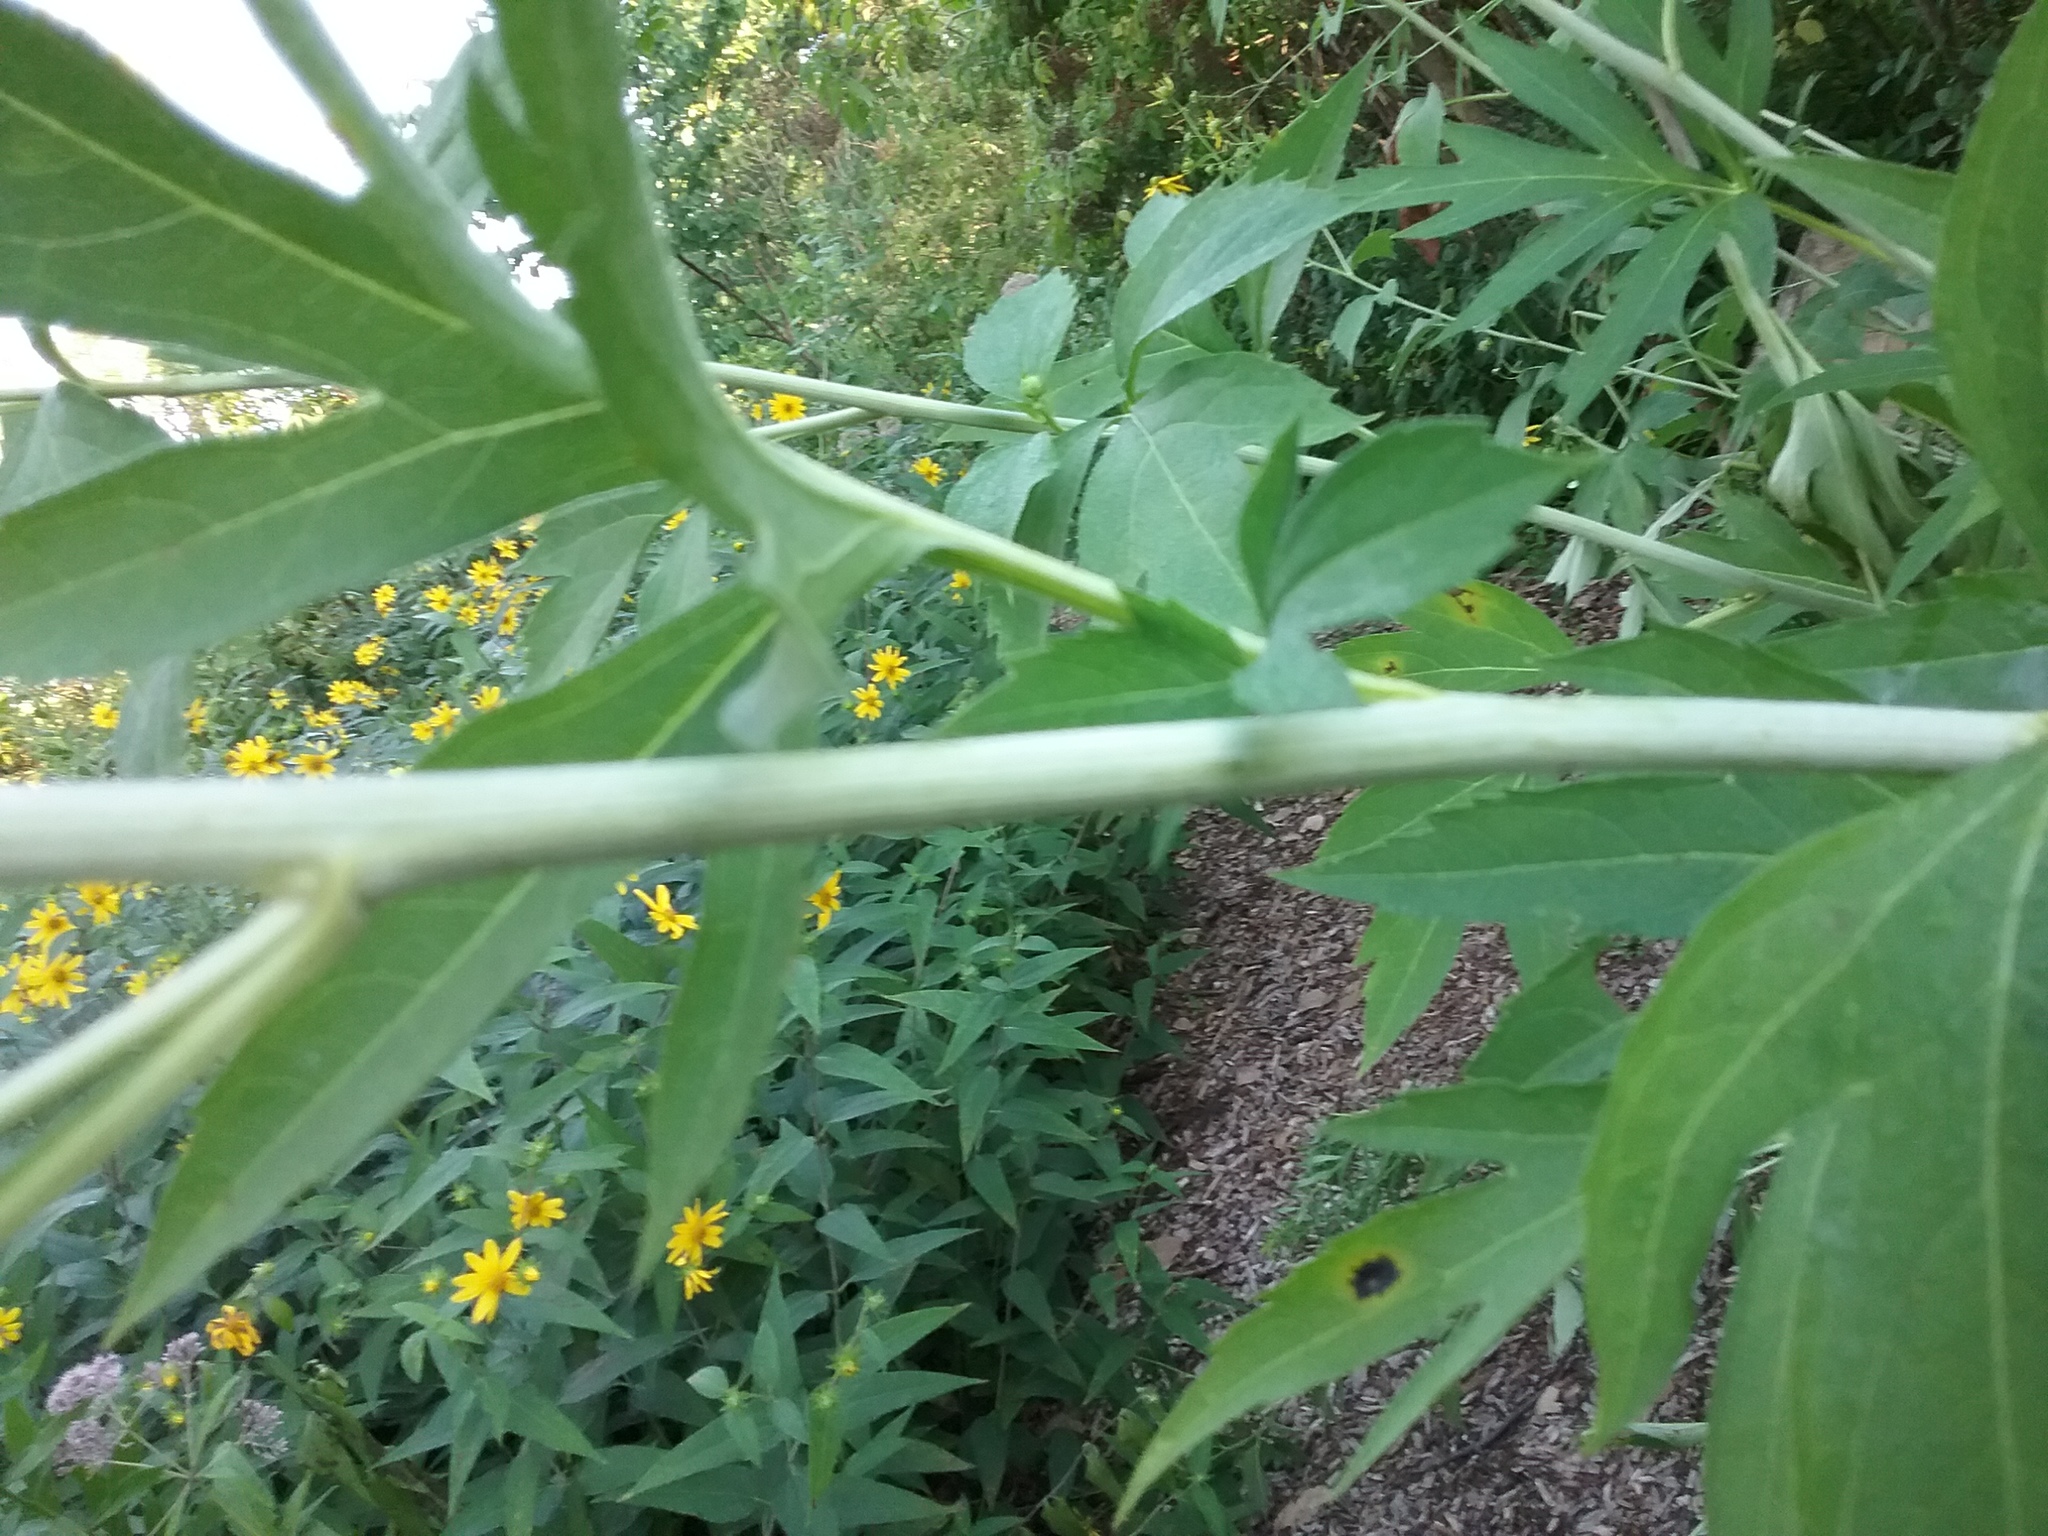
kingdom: Plantae
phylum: Tracheophyta
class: Magnoliopsida
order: Asterales
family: Asteraceae
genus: Rudbeckia
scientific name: Rudbeckia laciniata
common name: Coneflower
